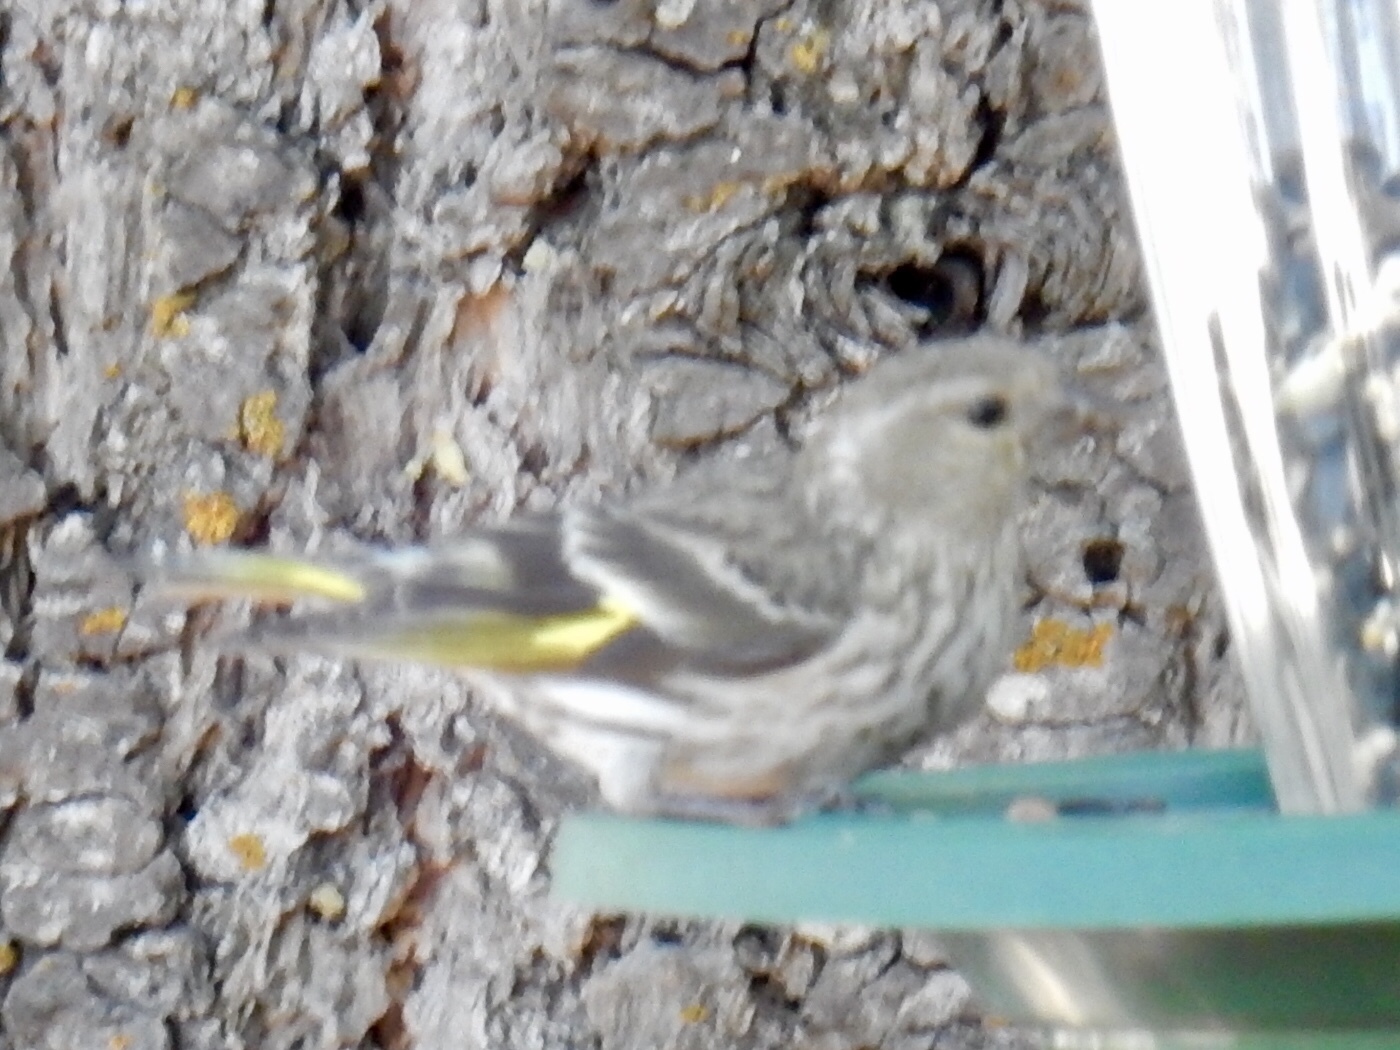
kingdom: Animalia
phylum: Chordata
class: Aves
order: Passeriformes
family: Fringillidae
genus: Spinus
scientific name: Spinus pinus
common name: Pine siskin
